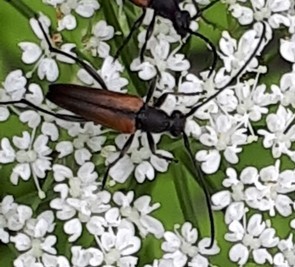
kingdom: Animalia
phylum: Arthropoda
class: Insecta
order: Coleoptera
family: Cerambycidae
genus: Stenurella
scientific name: Stenurella melanura
